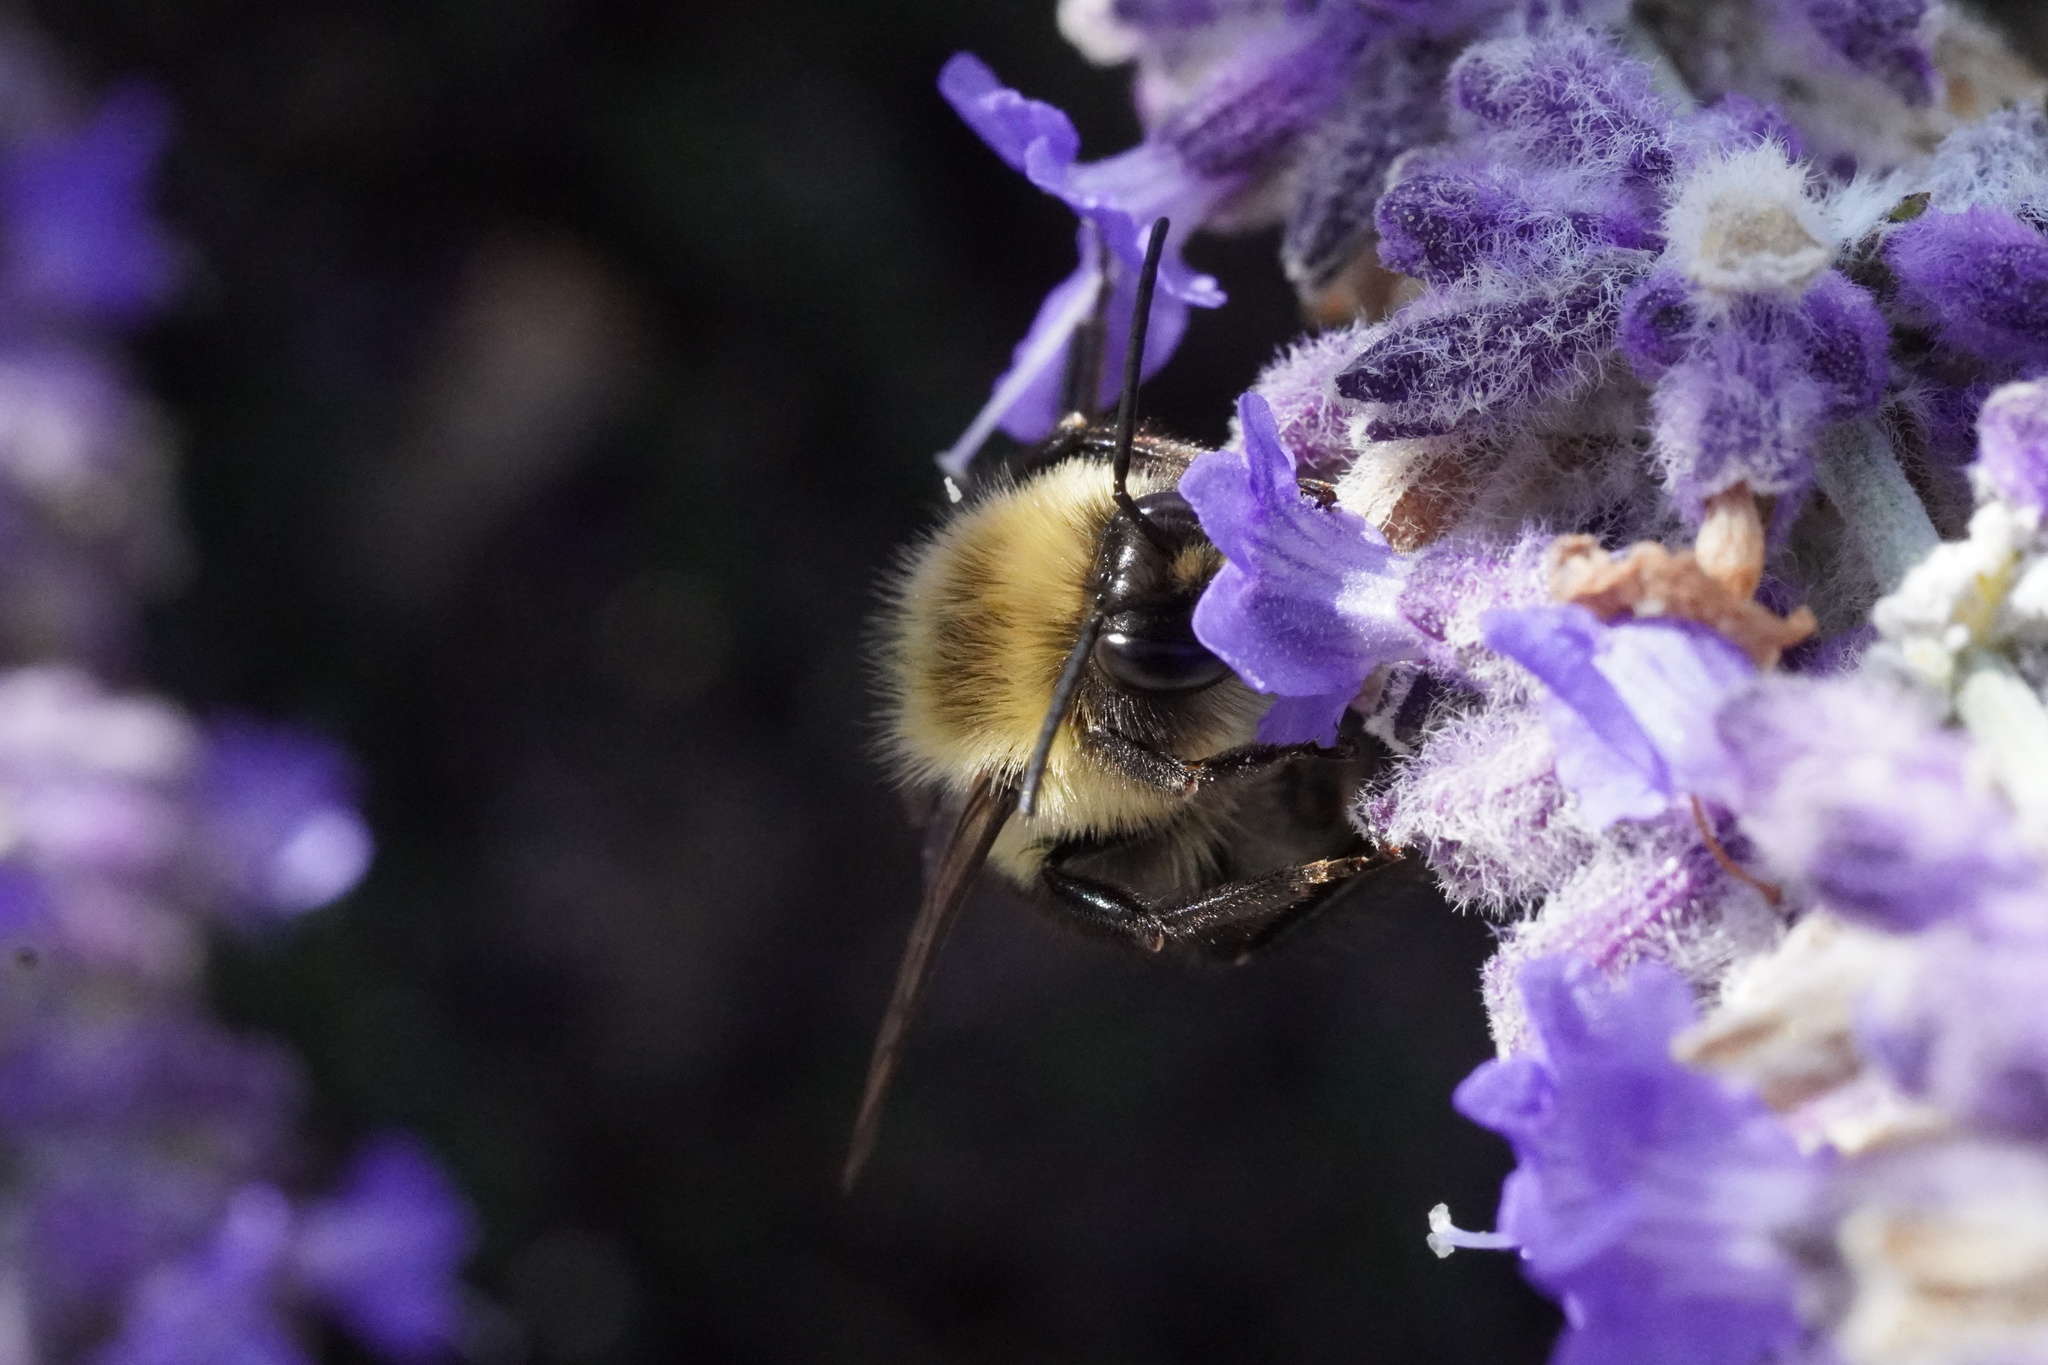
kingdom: Animalia
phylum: Arthropoda
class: Insecta
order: Hymenoptera
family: Apidae
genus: Bombus
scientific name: Bombus impatiens
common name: Common eastern bumble bee
